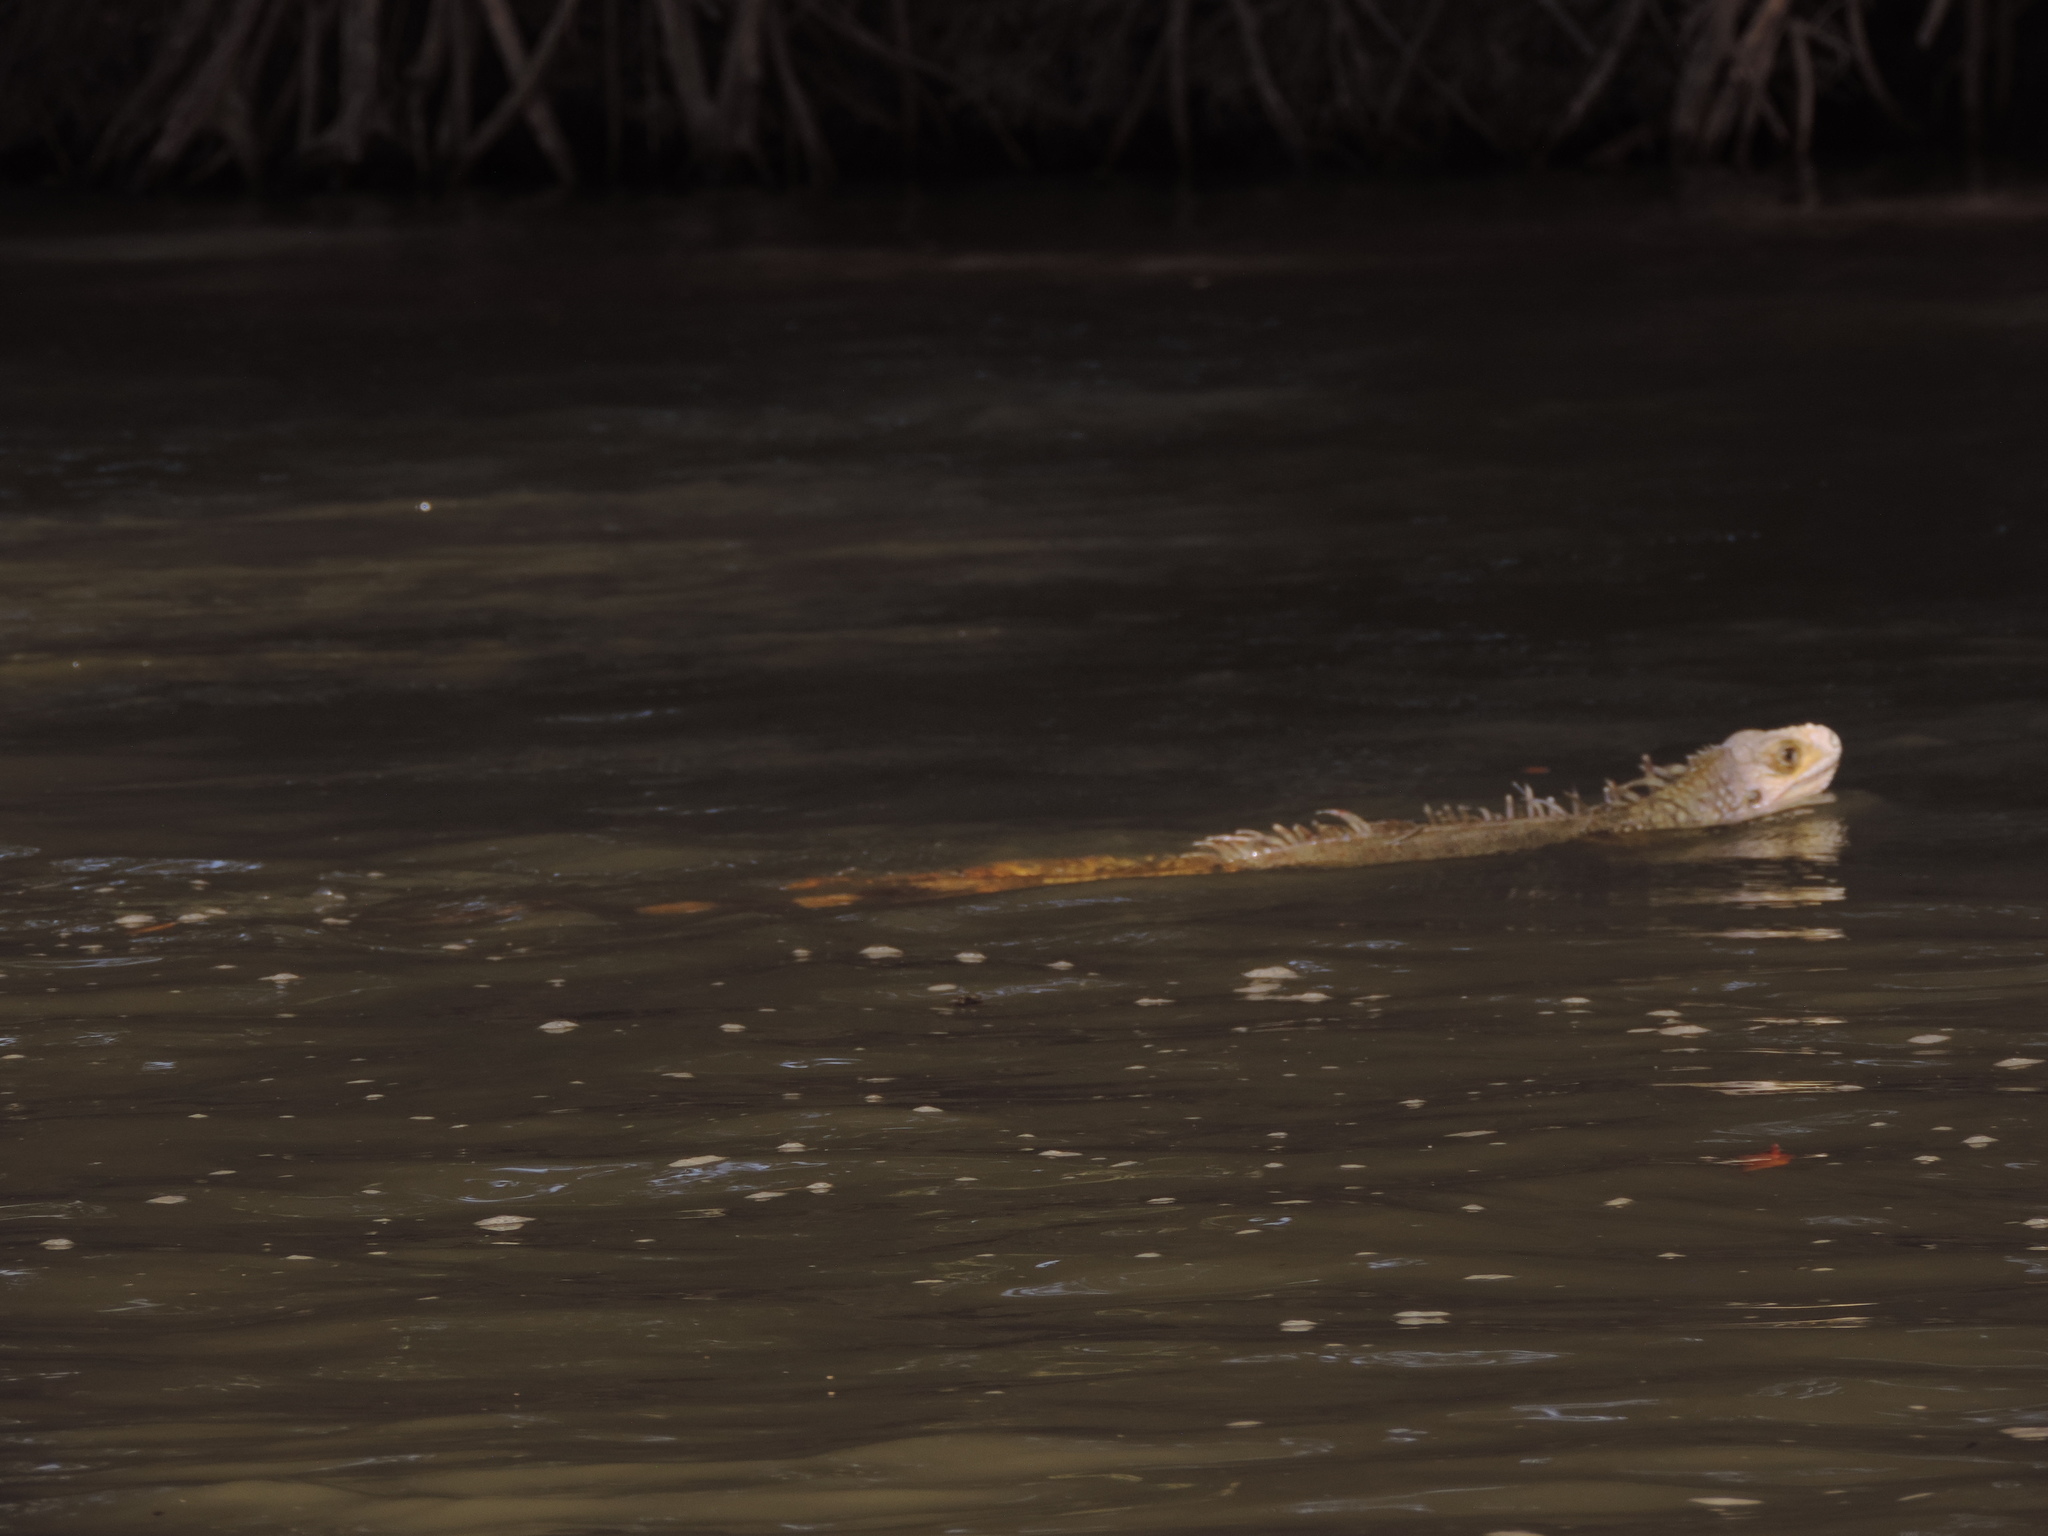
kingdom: Animalia
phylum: Chordata
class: Squamata
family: Iguanidae
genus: Iguana
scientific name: Iguana iguana
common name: Green iguana
